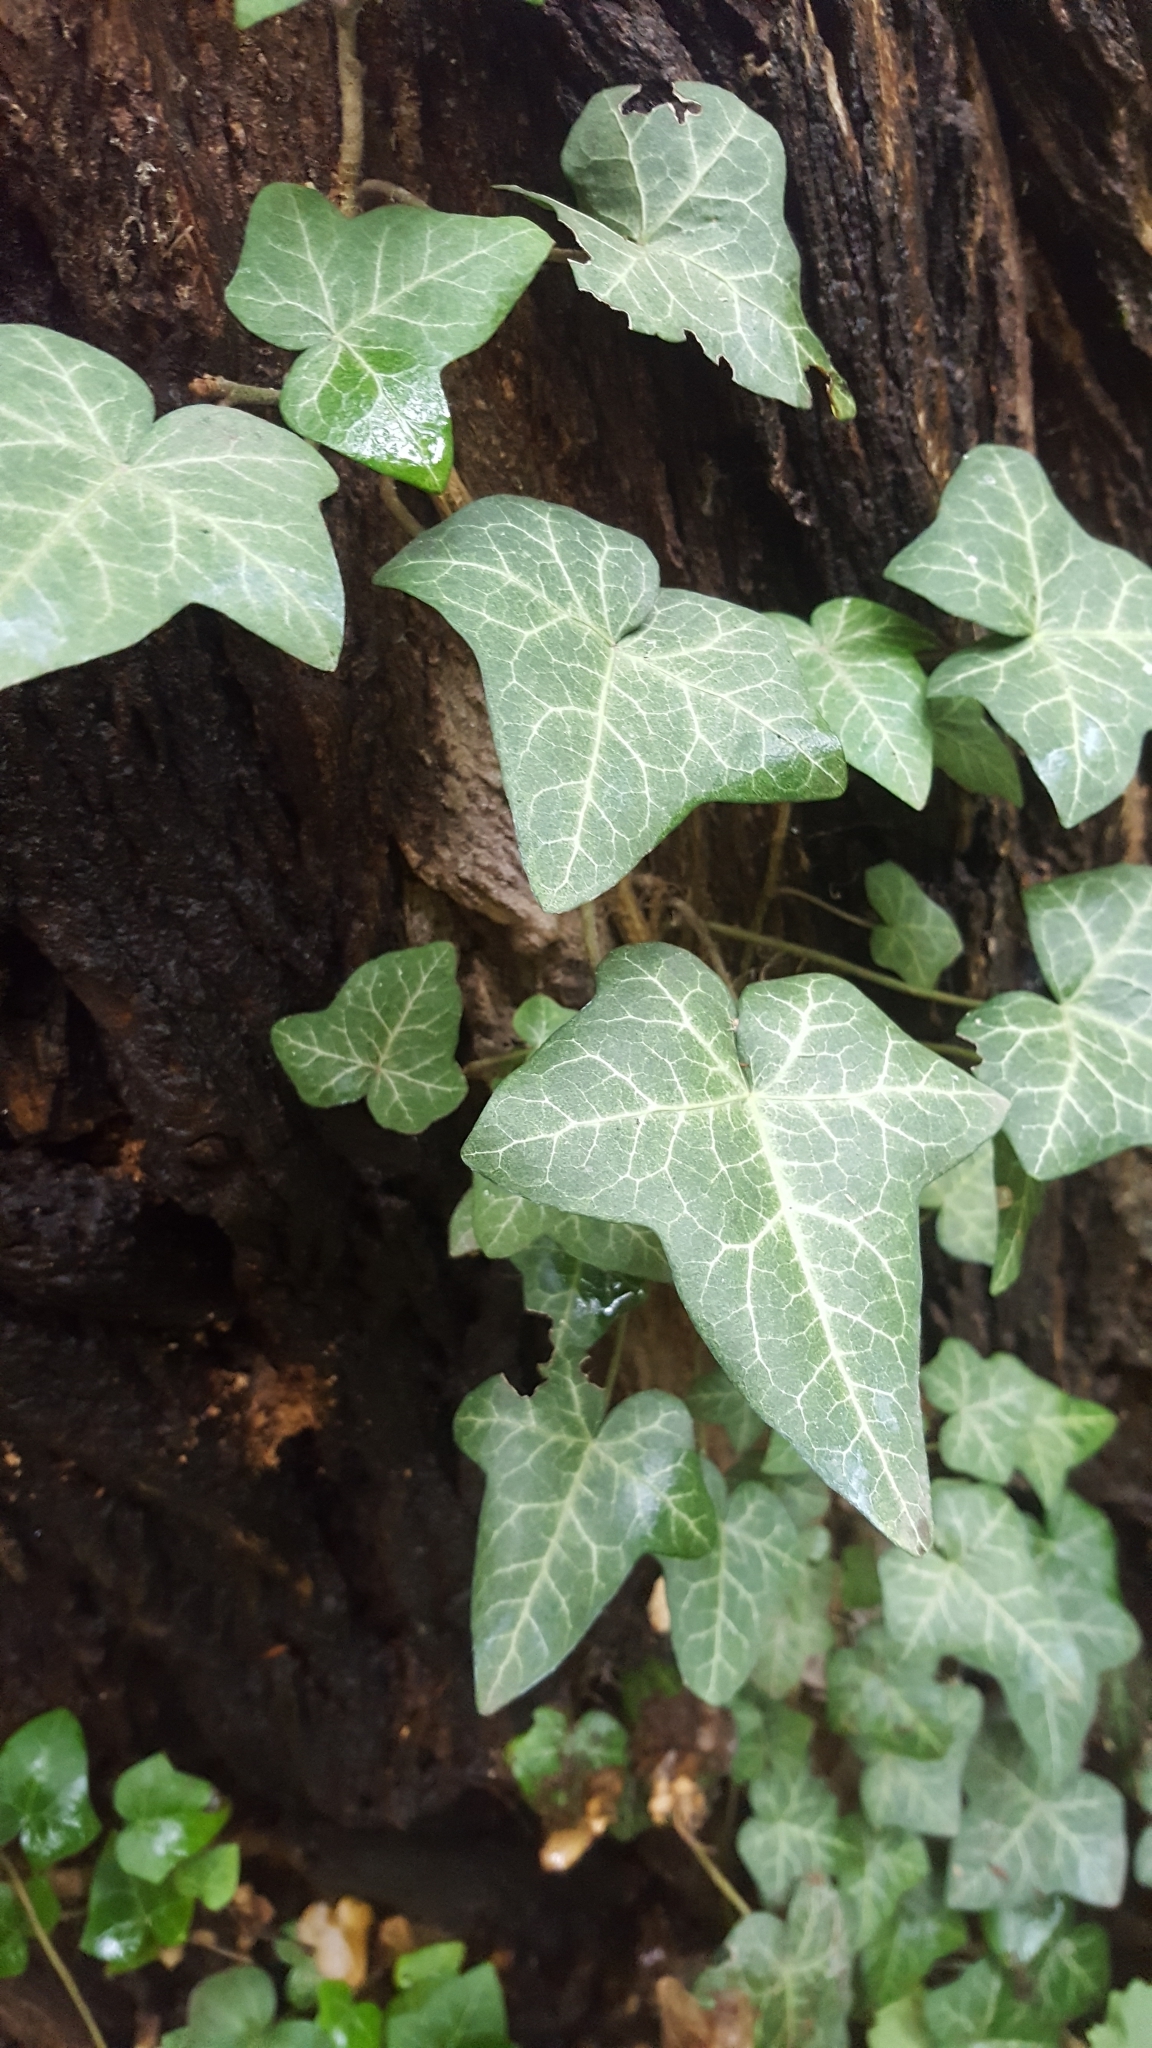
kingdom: Plantae
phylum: Tracheophyta
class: Magnoliopsida
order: Apiales
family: Araliaceae
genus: Hedera
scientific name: Hedera helix
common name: Ivy
